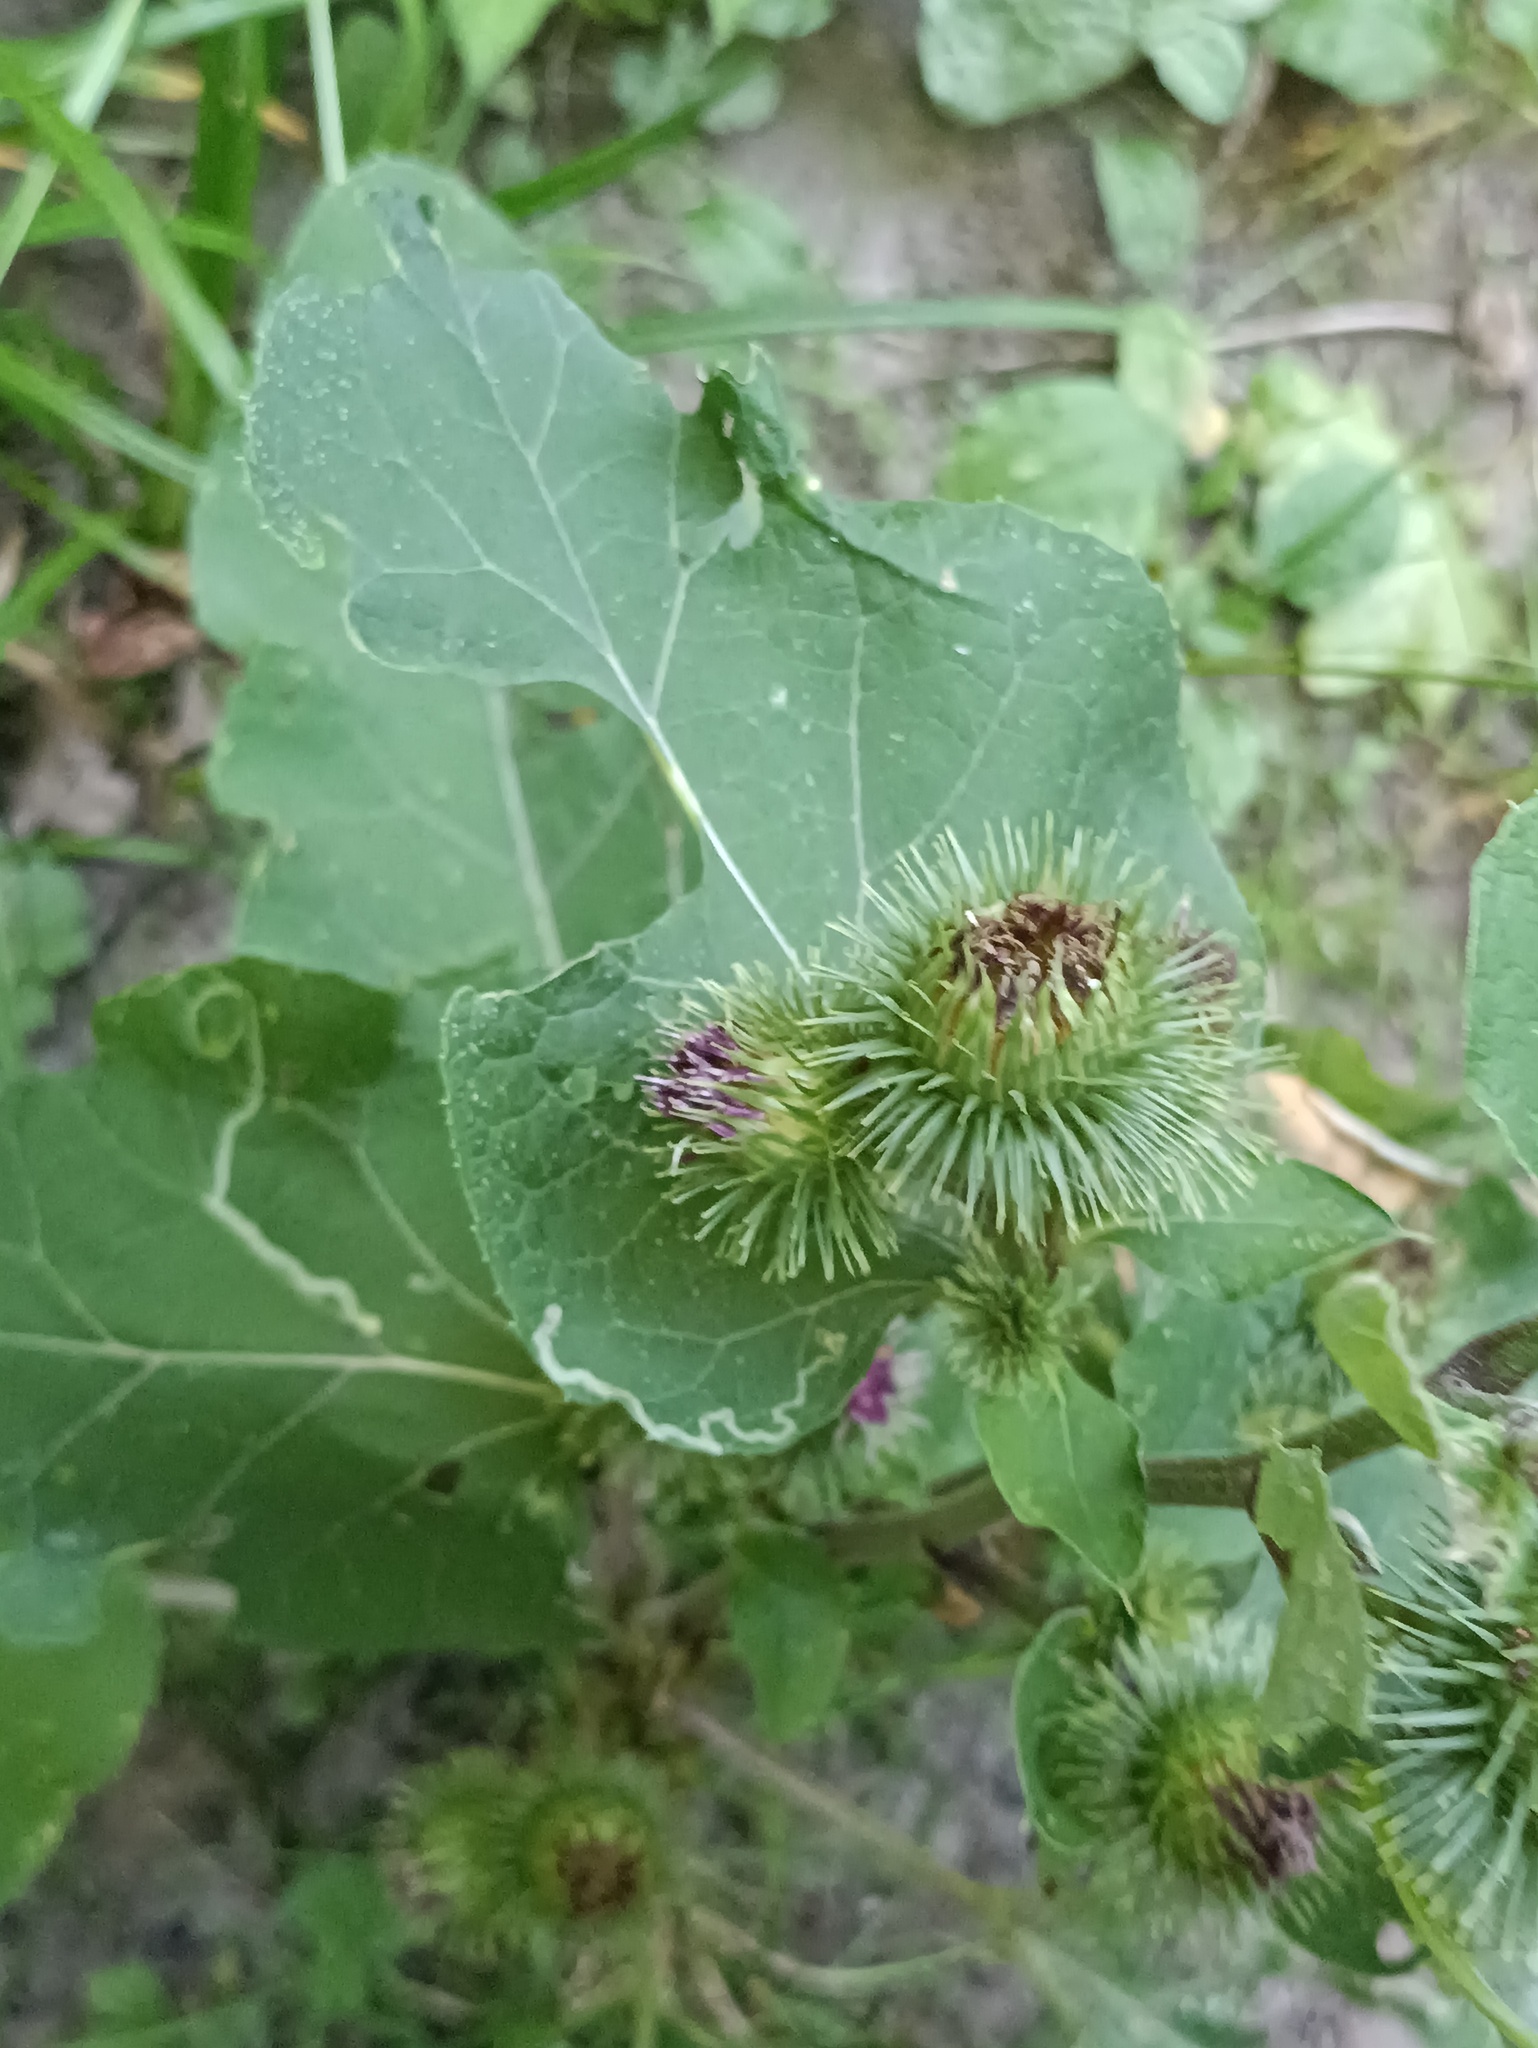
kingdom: Plantae
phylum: Tracheophyta
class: Magnoliopsida
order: Asterales
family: Asteraceae
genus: Arctium
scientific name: Arctium lappa
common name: Greater burdock
